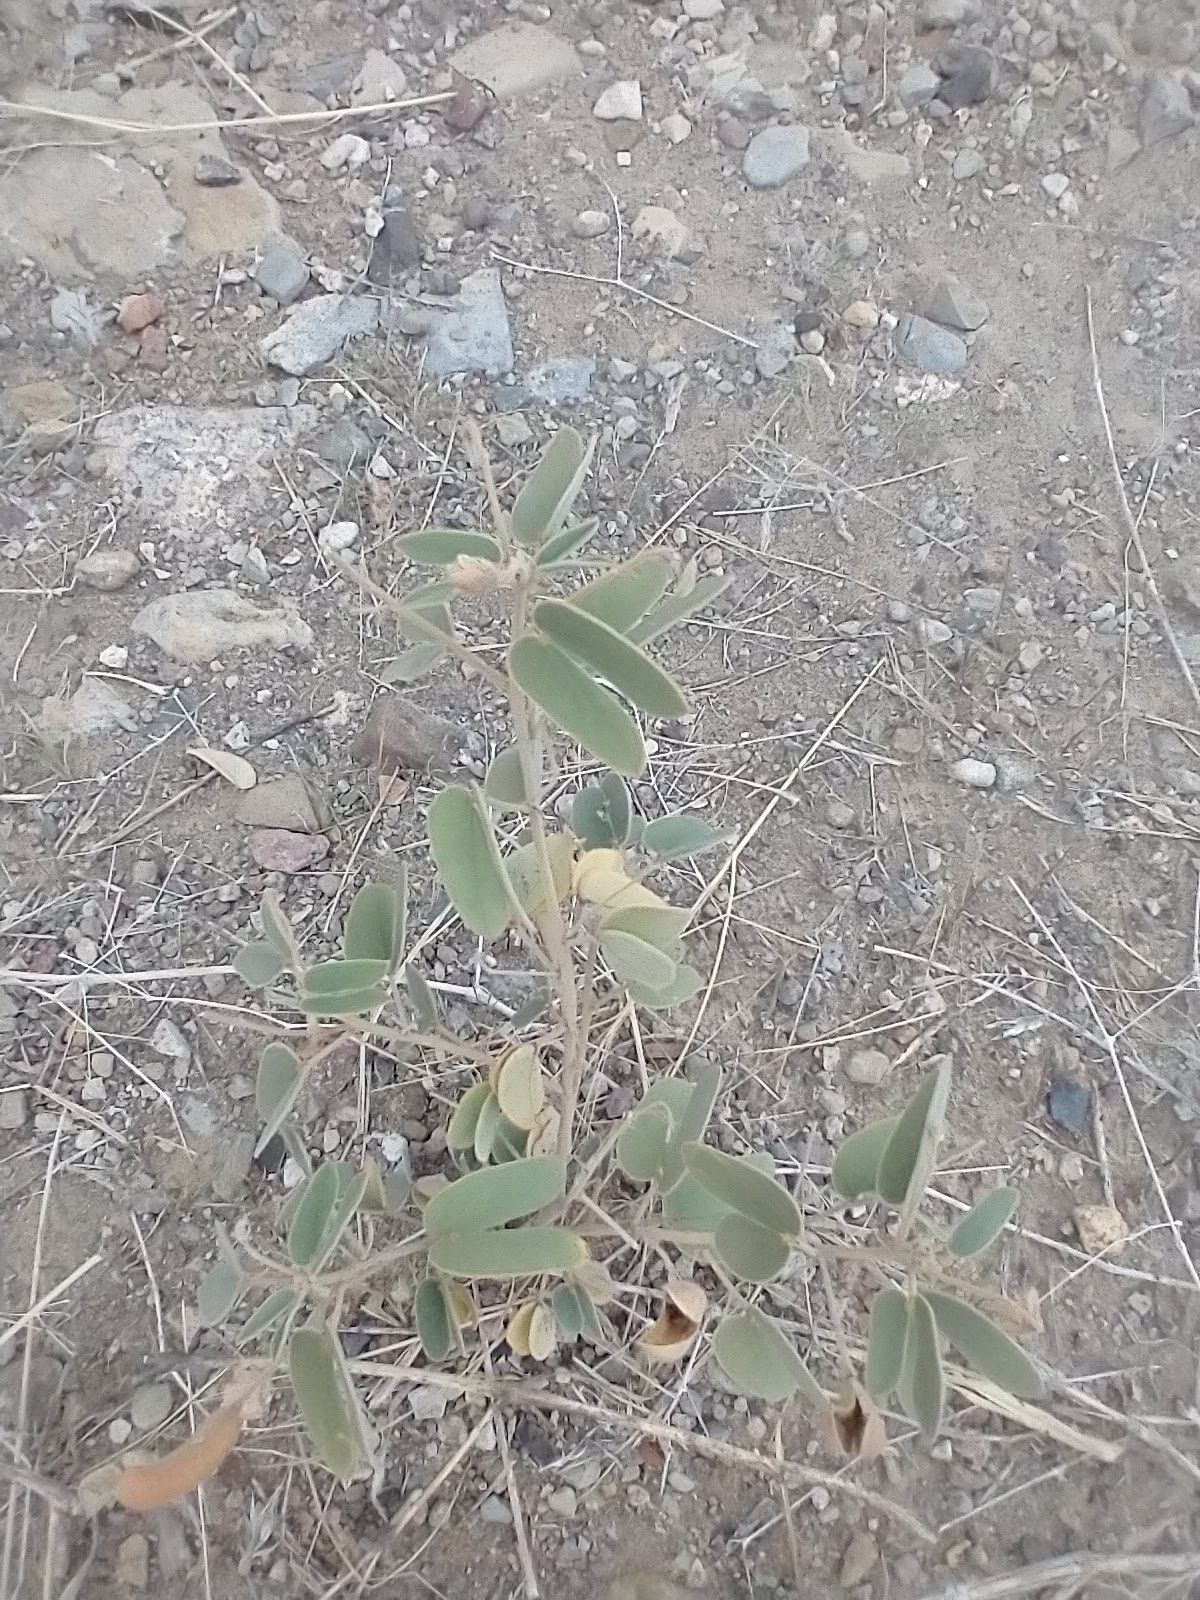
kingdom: Plantae
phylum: Tracheophyta
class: Magnoliopsida
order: Fabales
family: Fabaceae
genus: Senna
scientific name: Senna bauhinioides
